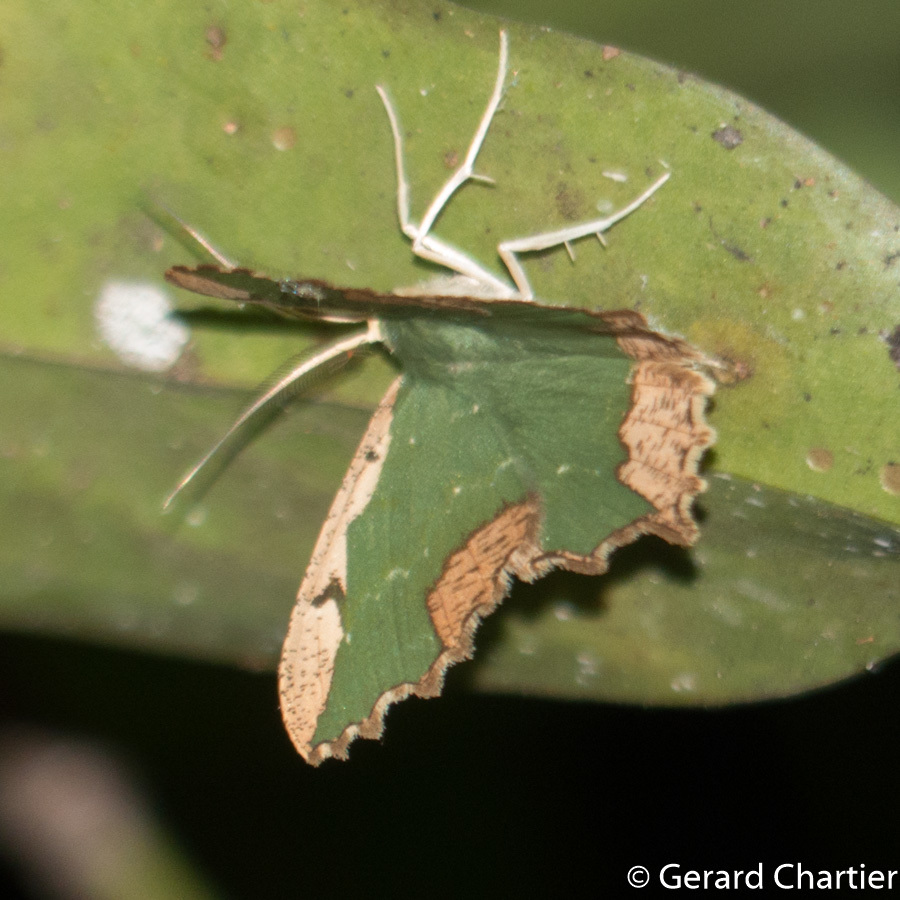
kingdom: Animalia
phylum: Arthropoda
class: Insecta
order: Lepidoptera
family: Geometridae
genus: Maxates
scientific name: Maxates coelataria
